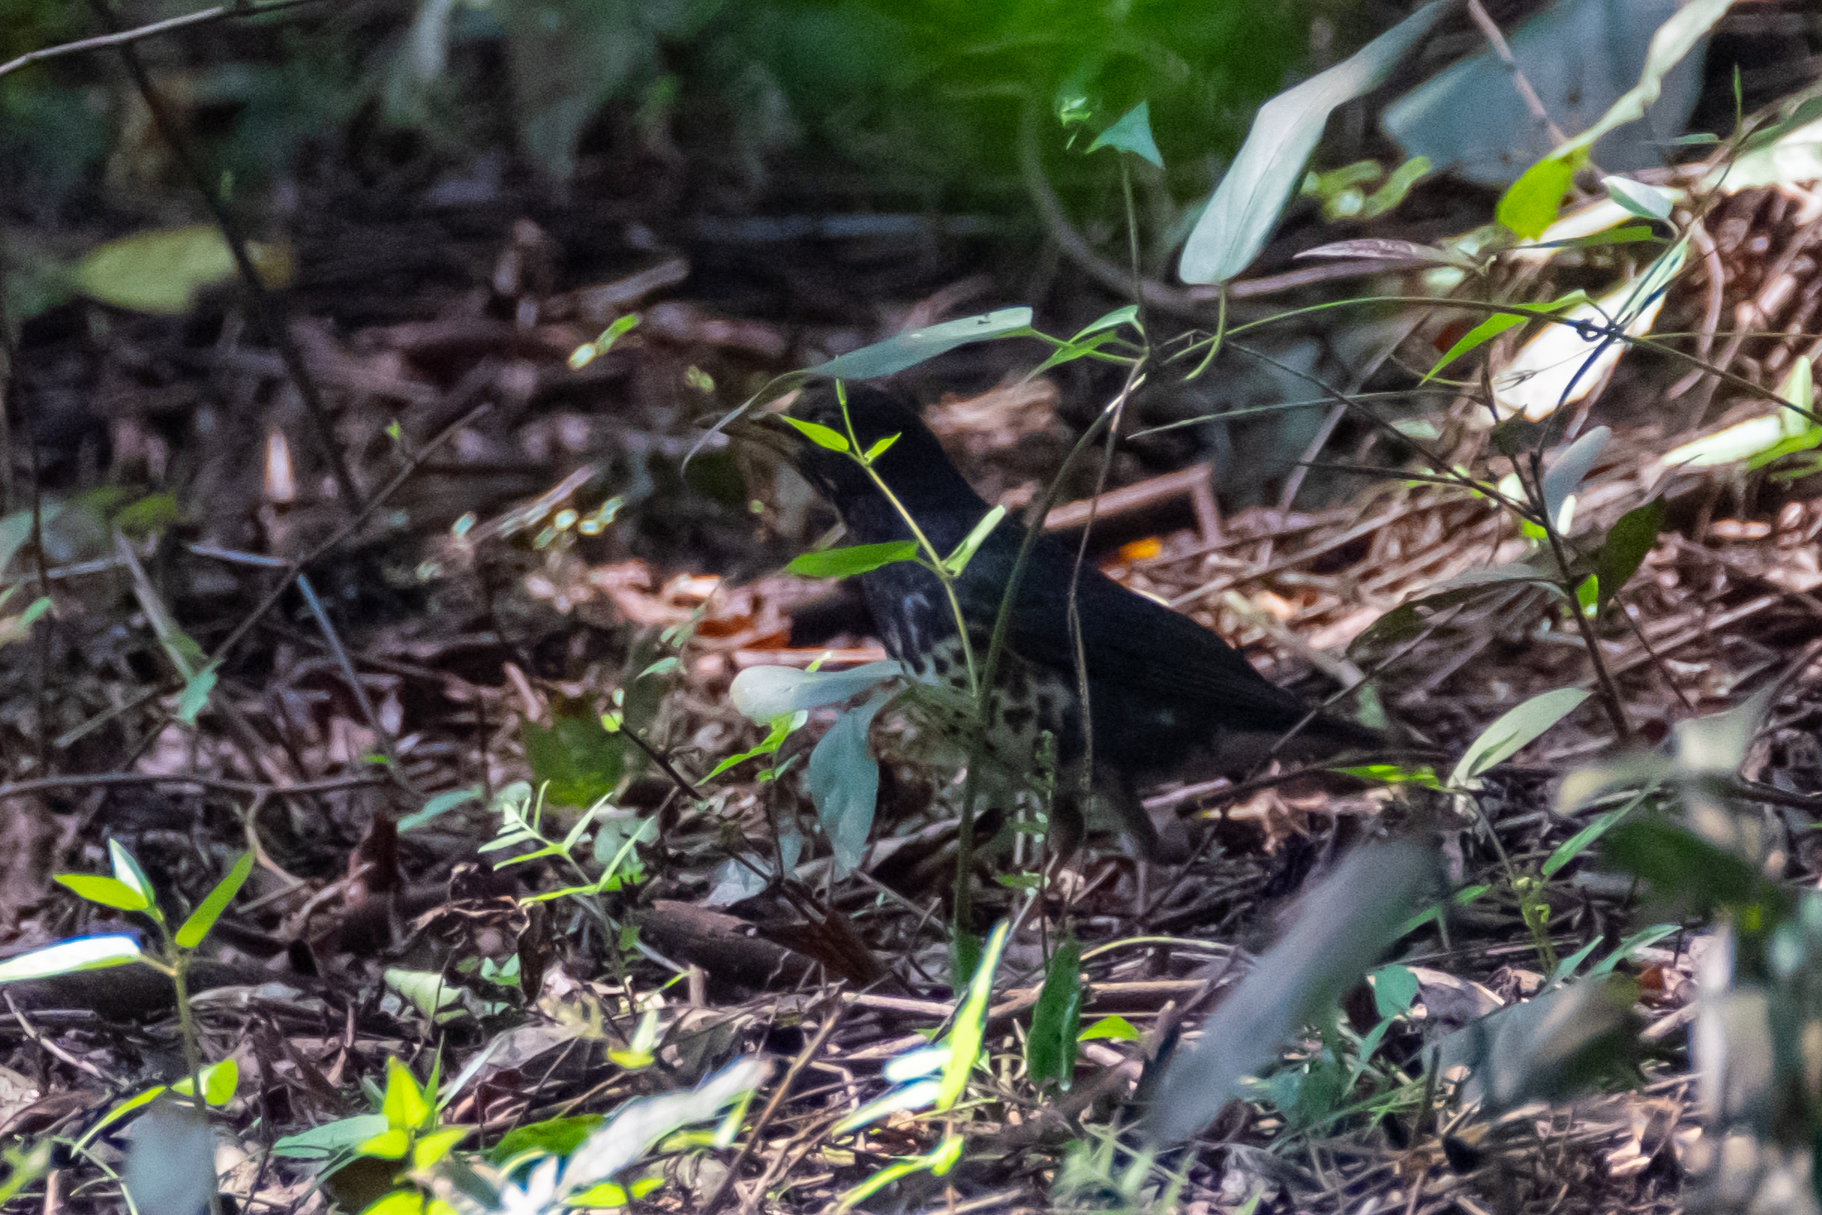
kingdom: Animalia
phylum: Chordata
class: Aves
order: Passeriformes
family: Turdidae
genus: Turdus
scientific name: Turdus cardis
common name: Japanese thrush
